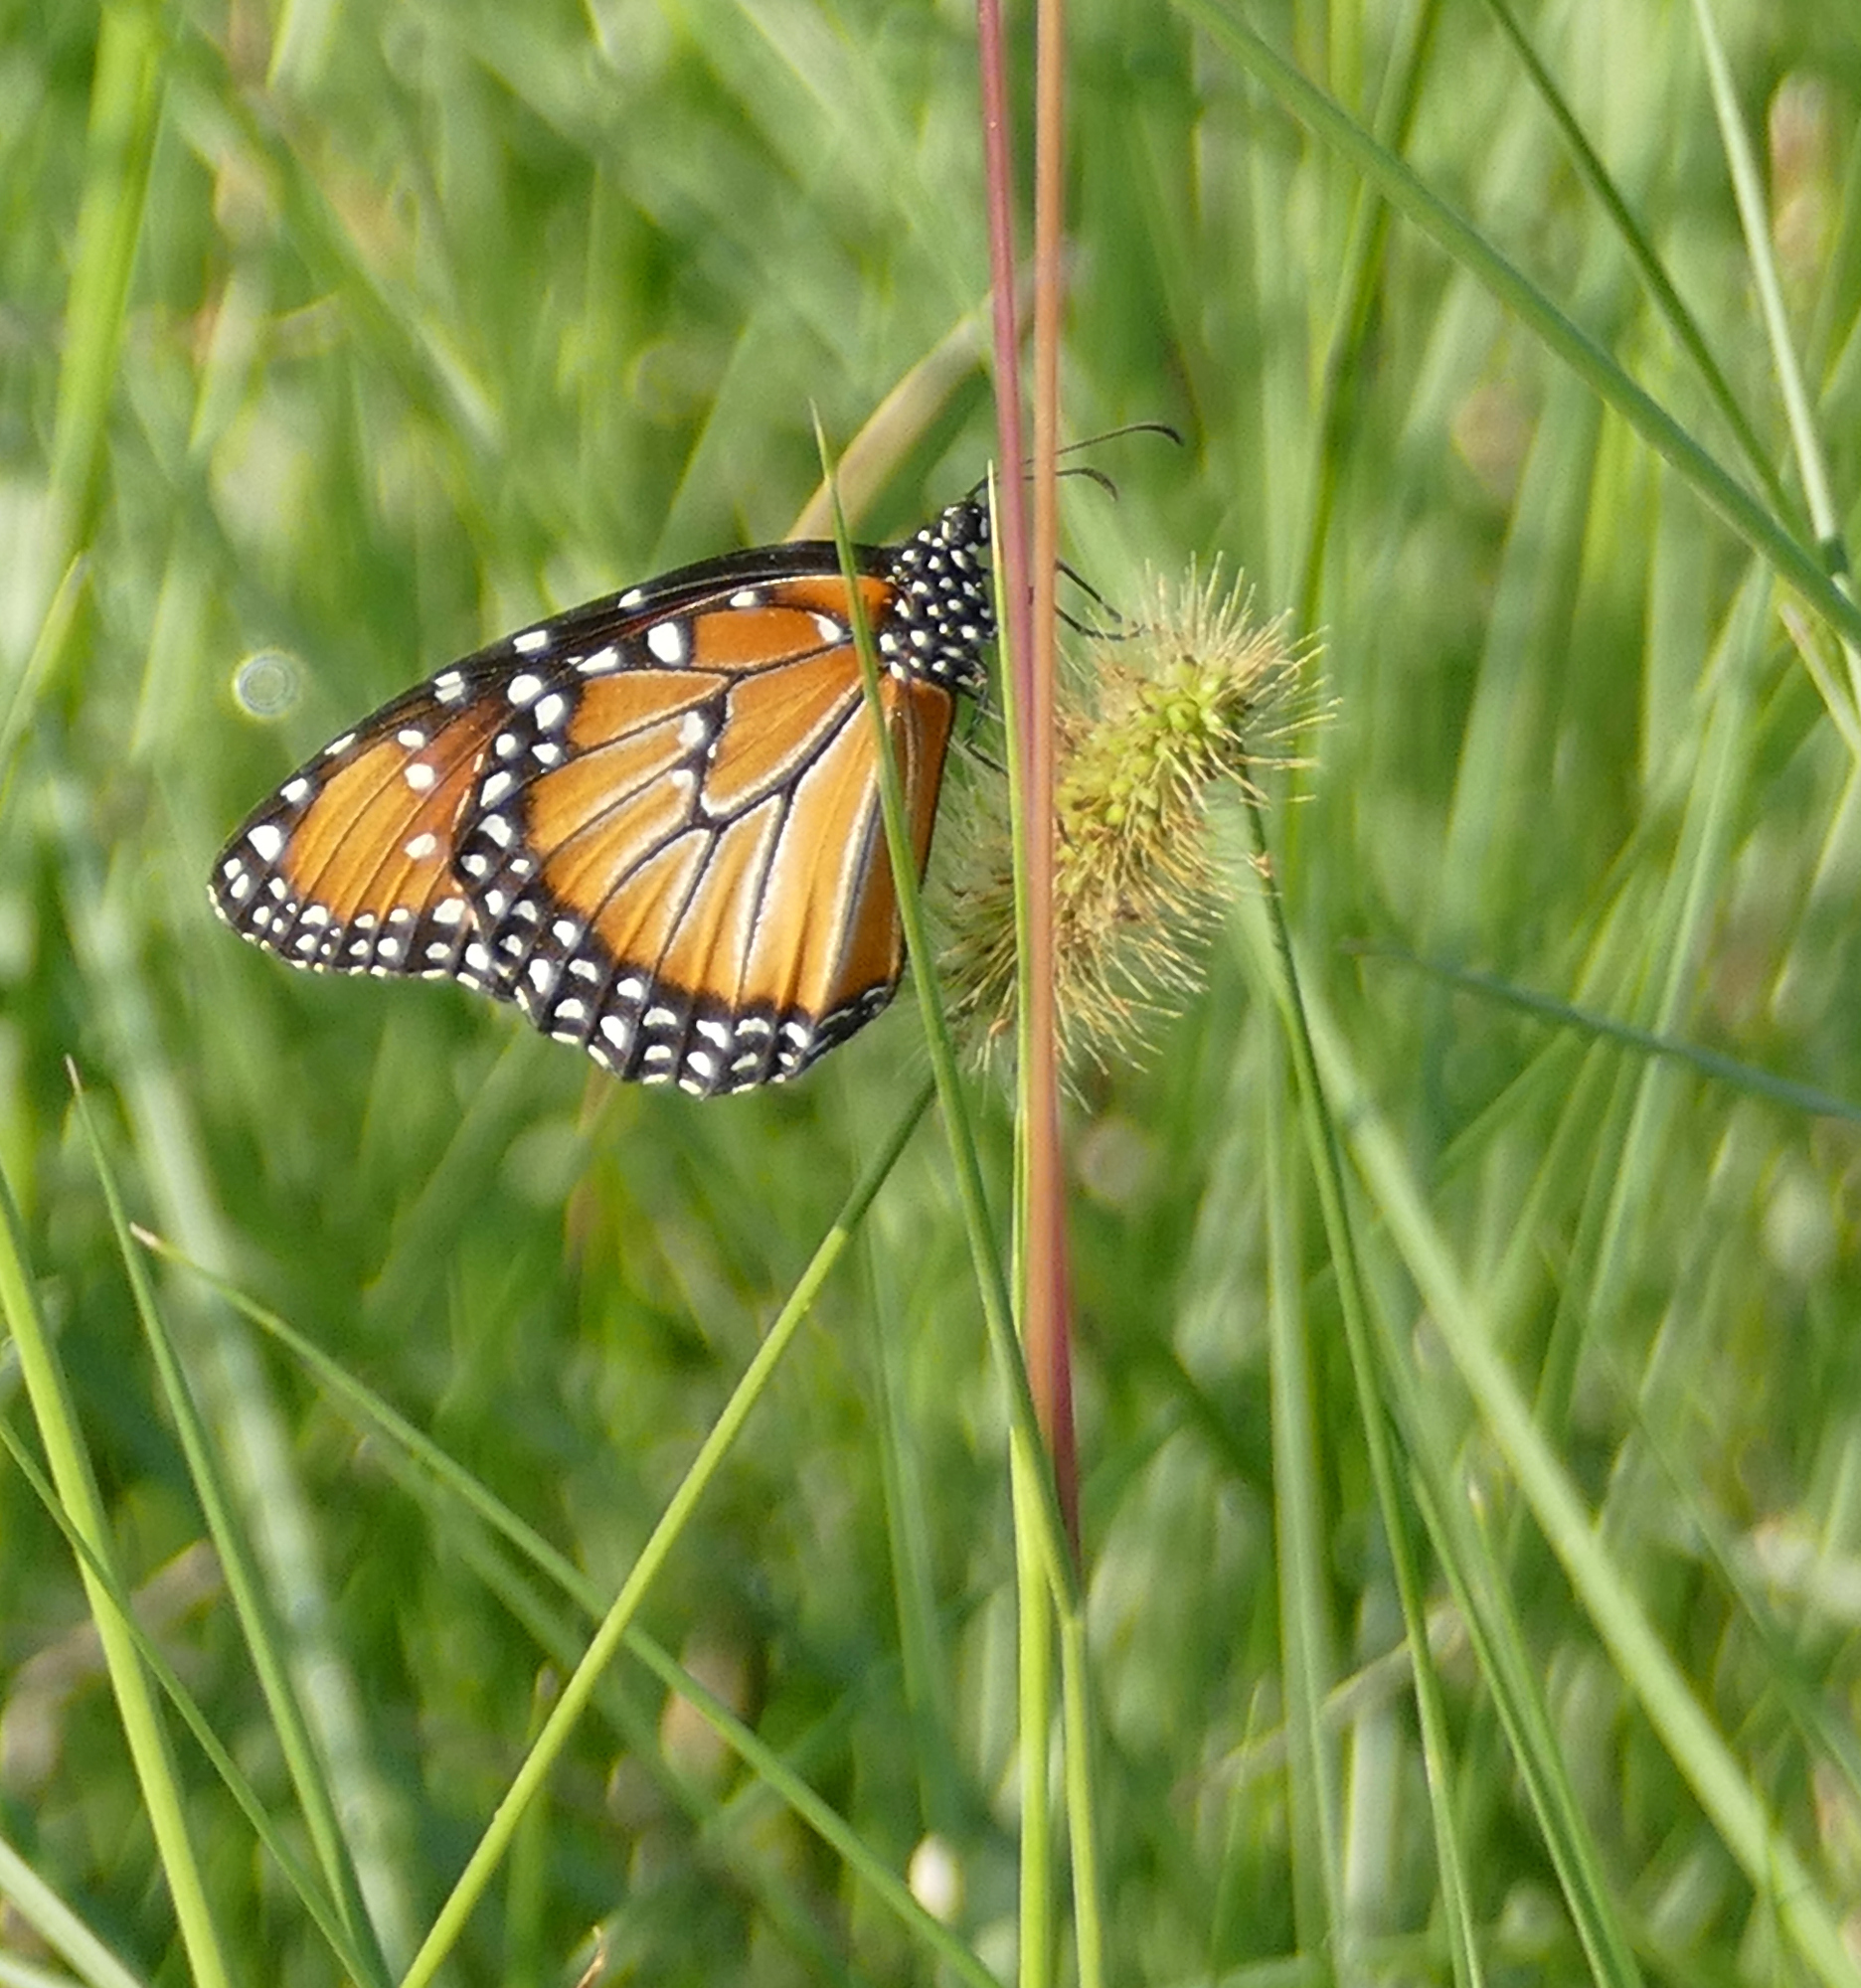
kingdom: Animalia
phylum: Arthropoda
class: Insecta
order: Lepidoptera
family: Nymphalidae
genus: Danaus
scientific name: Danaus gilippus
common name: Queen
